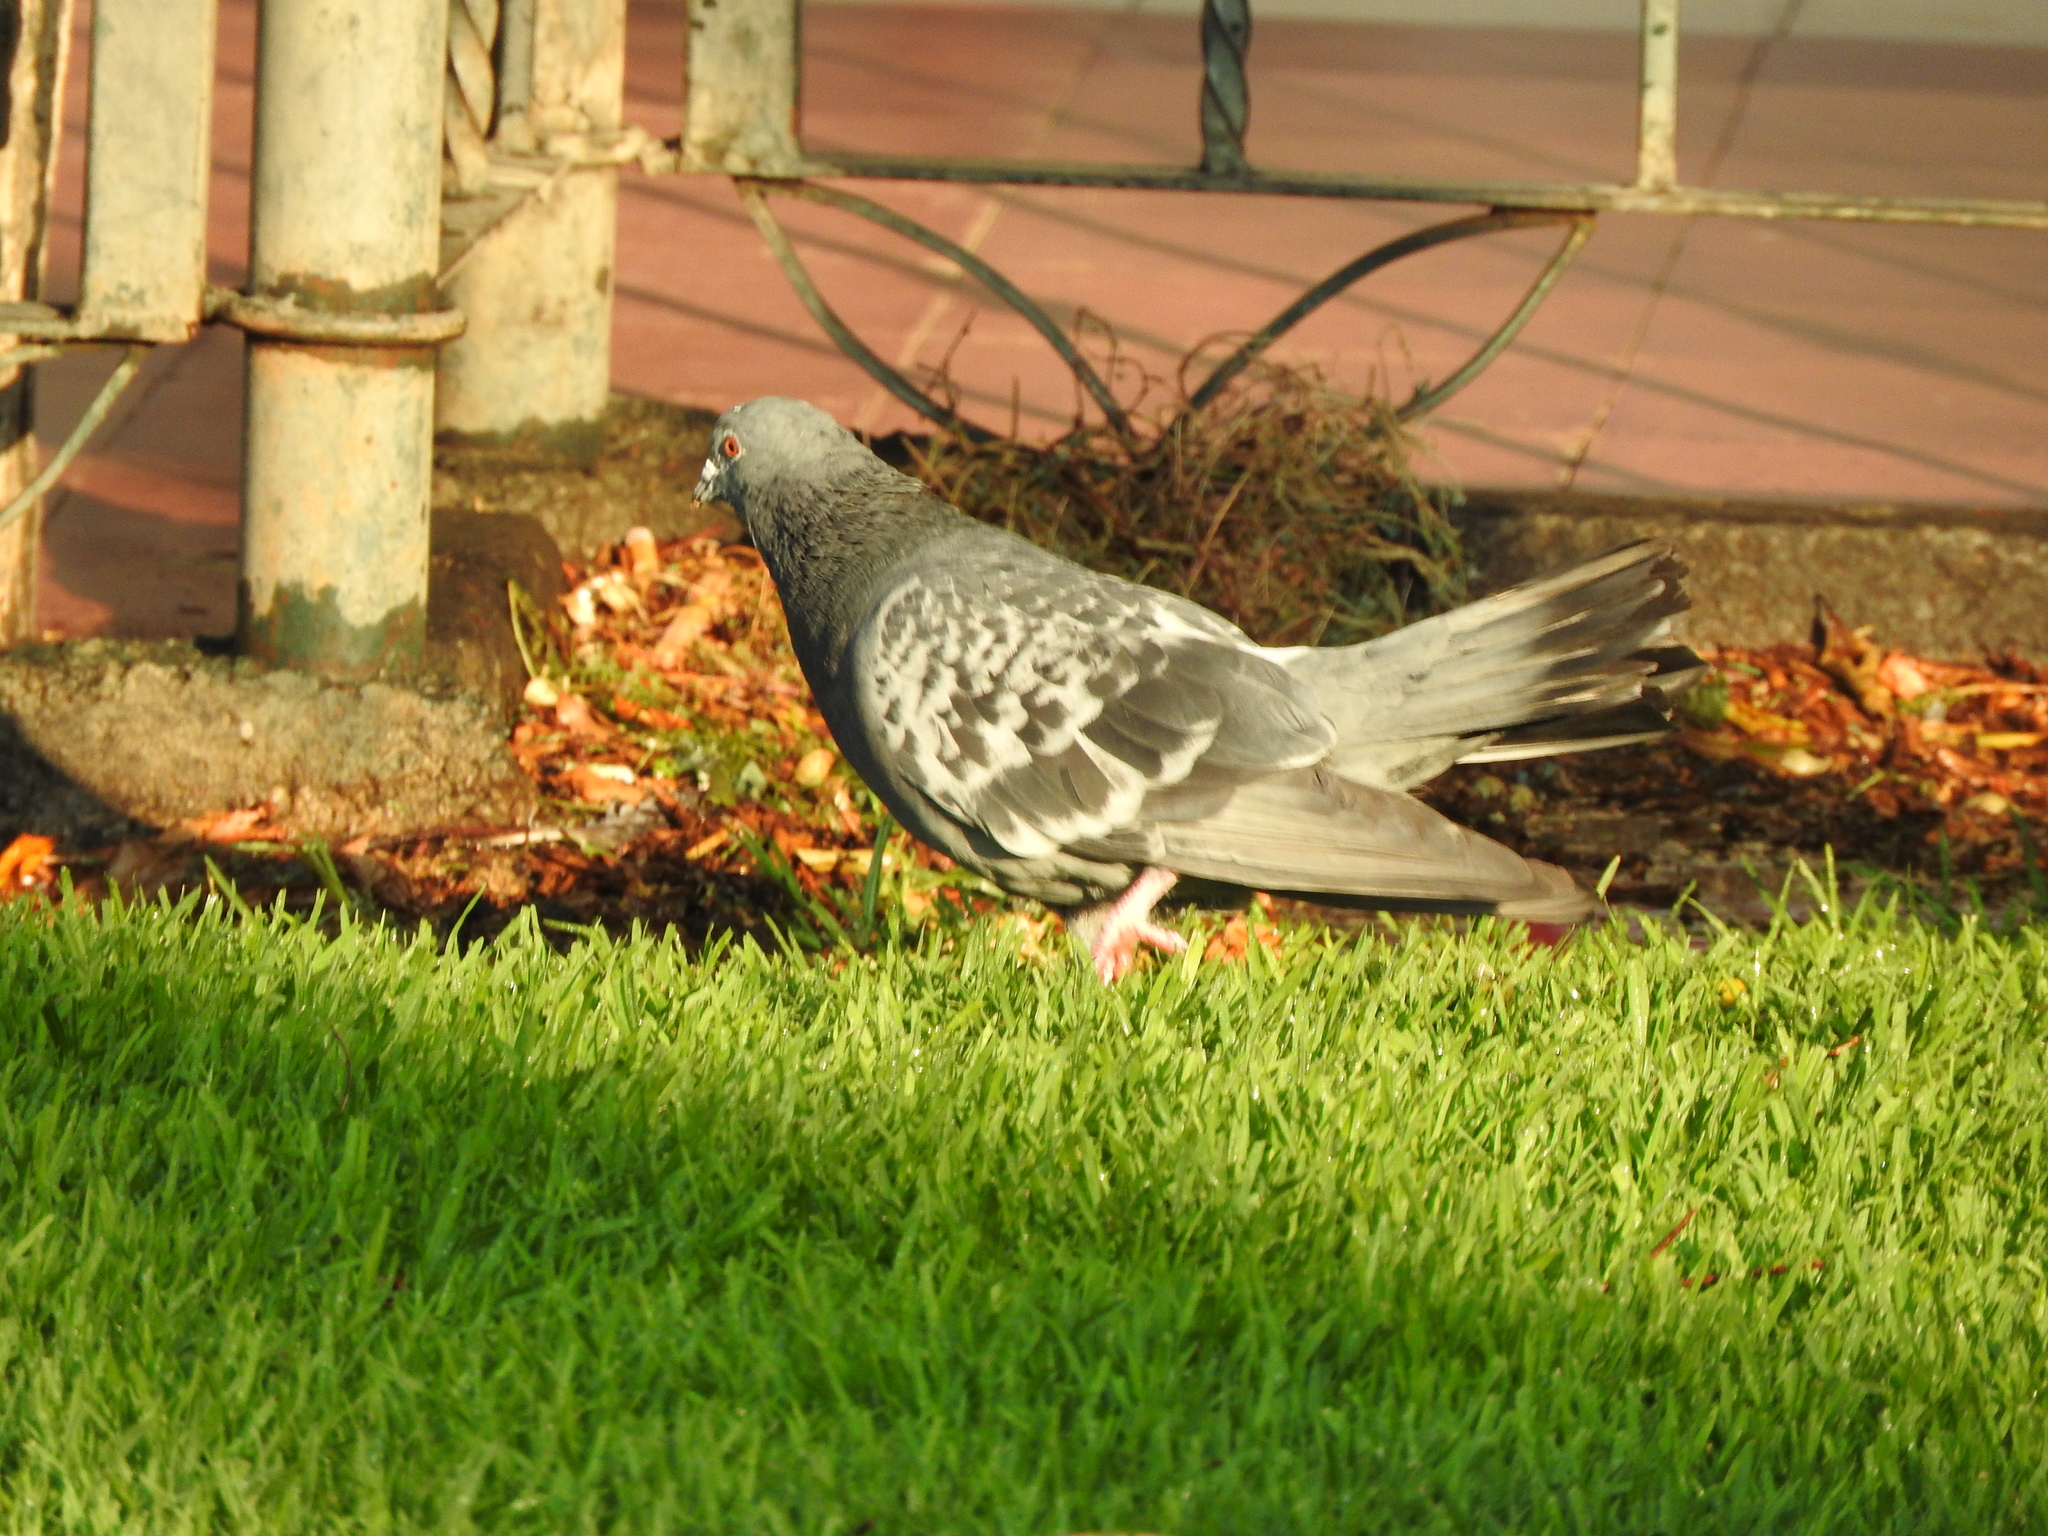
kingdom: Animalia
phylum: Chordata
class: Aves
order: Columbiformes
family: Columbidae
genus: Columba
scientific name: Columba livia
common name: Rock pigeon
